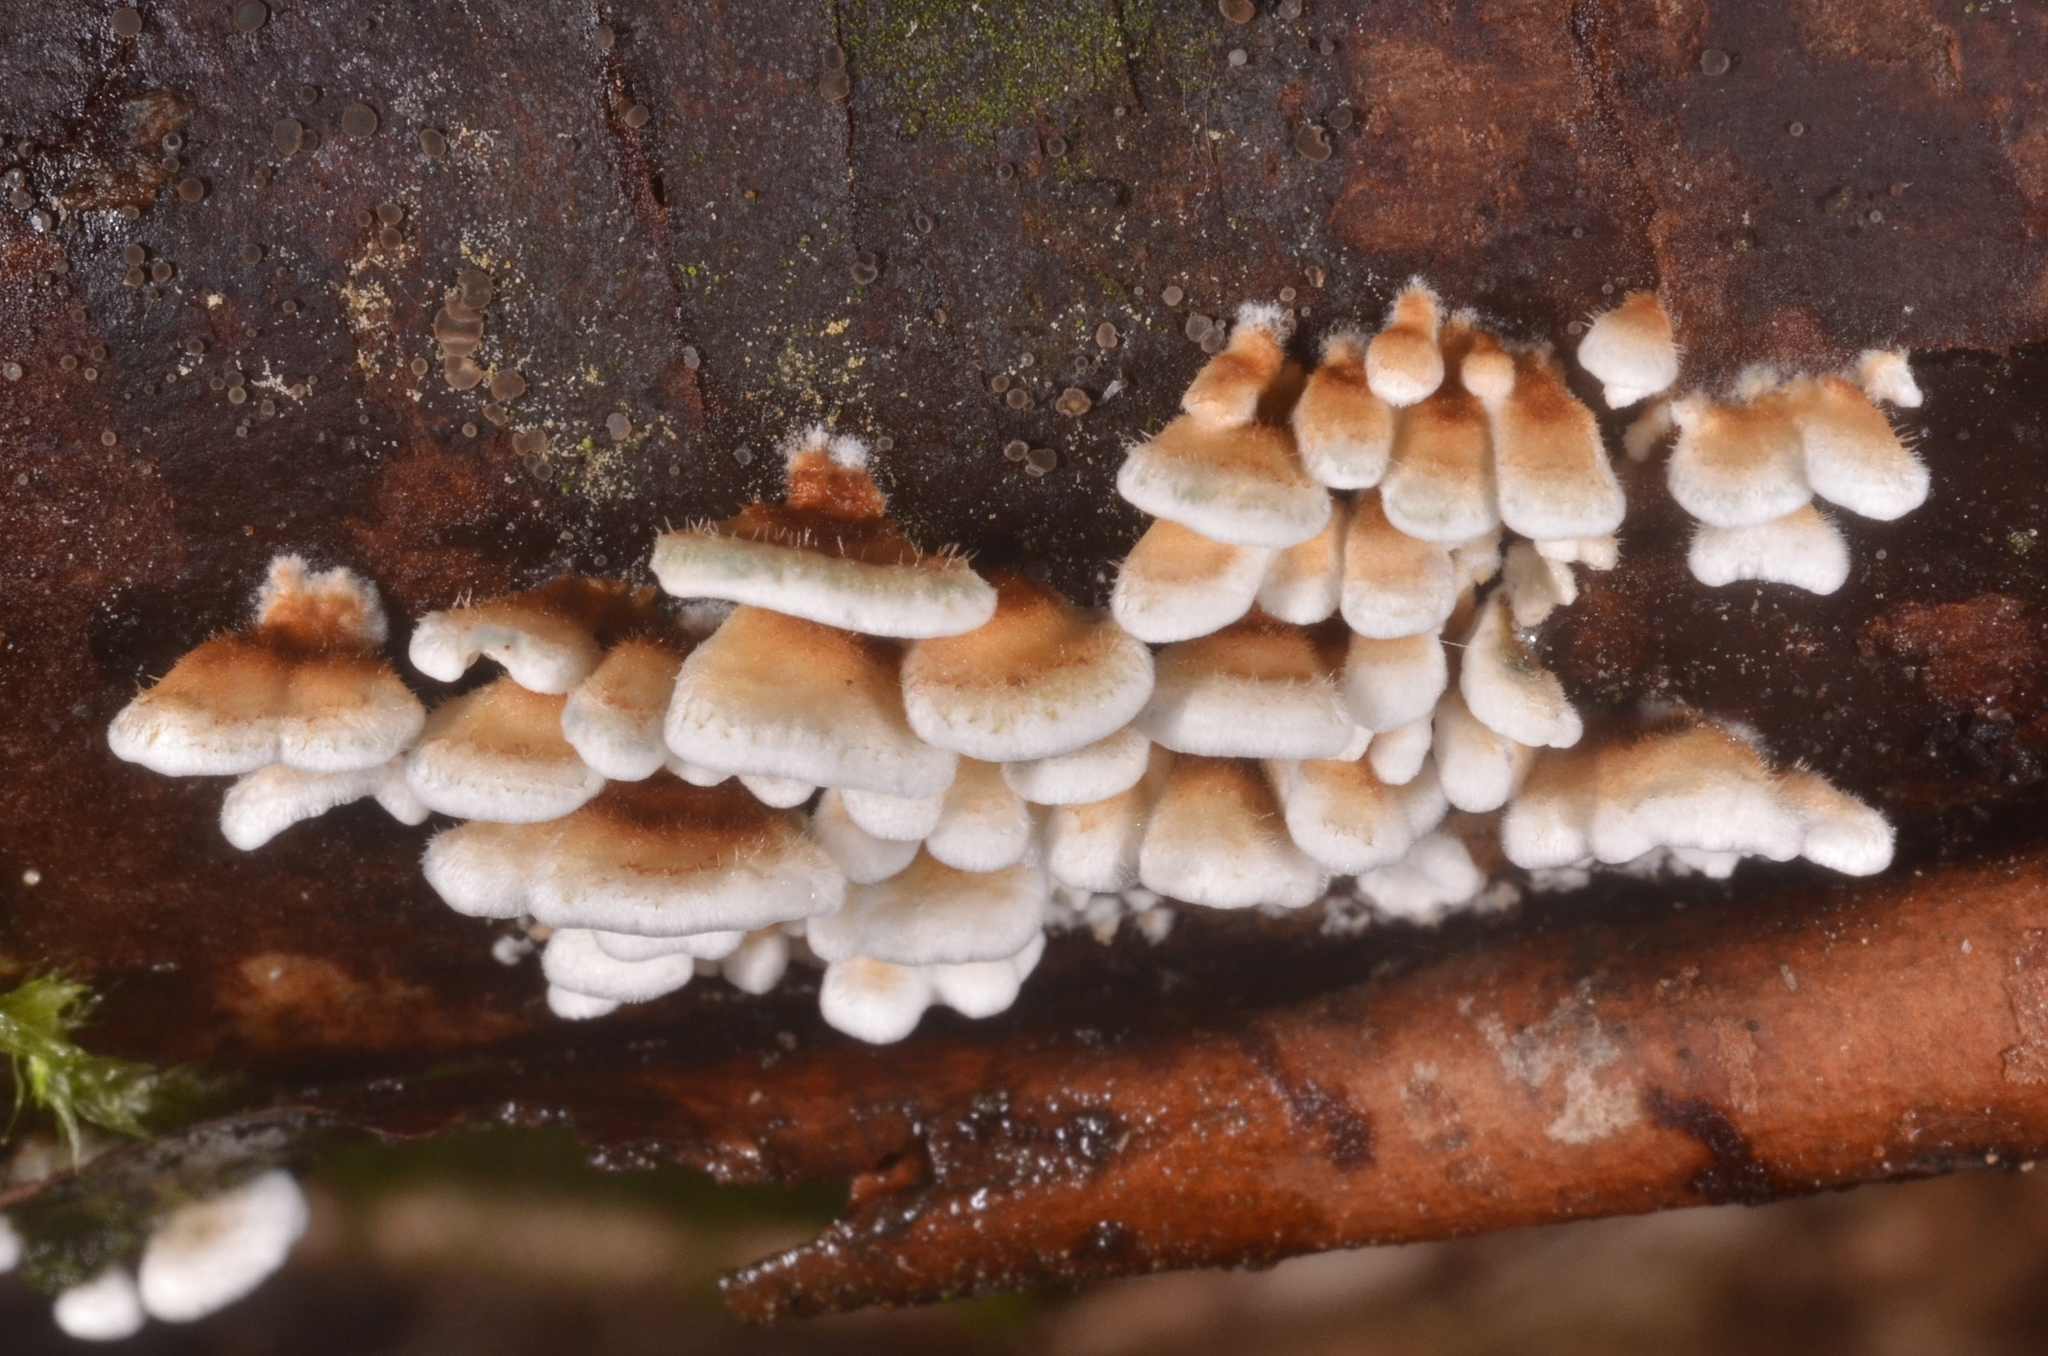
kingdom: Fungi
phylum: Basidiomycota
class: Agaricomycetes
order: Amylocorticiales
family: Amylocorticiaceae
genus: Plicaturopsis
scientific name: Plicaturopsis crispa
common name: Crimped gill
